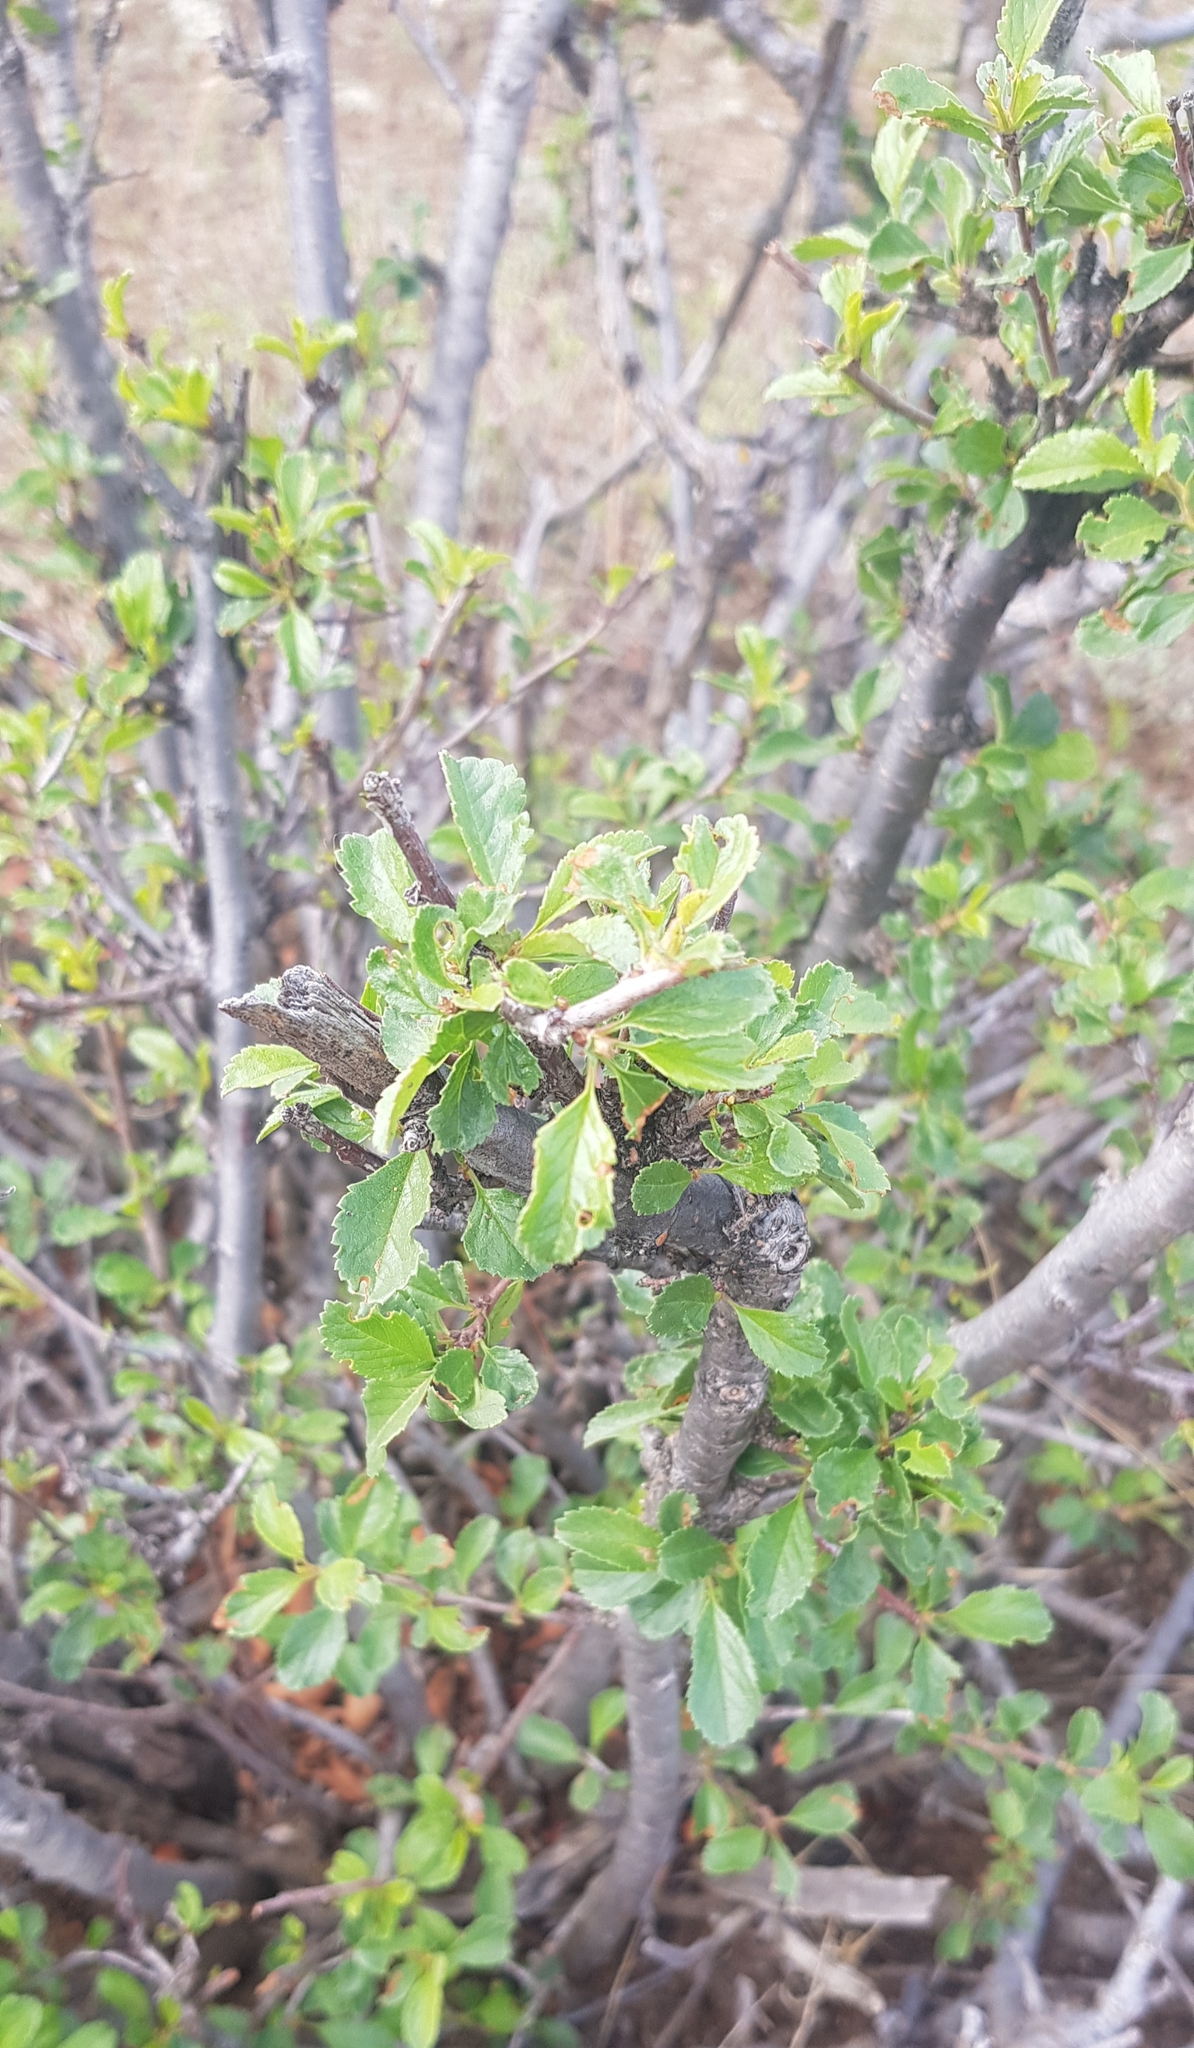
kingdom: Plantae
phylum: Tracheophyta
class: Magnoliopsida
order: Rosales
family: Rosaceae
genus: Prunus
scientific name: Prunus pedunculata
